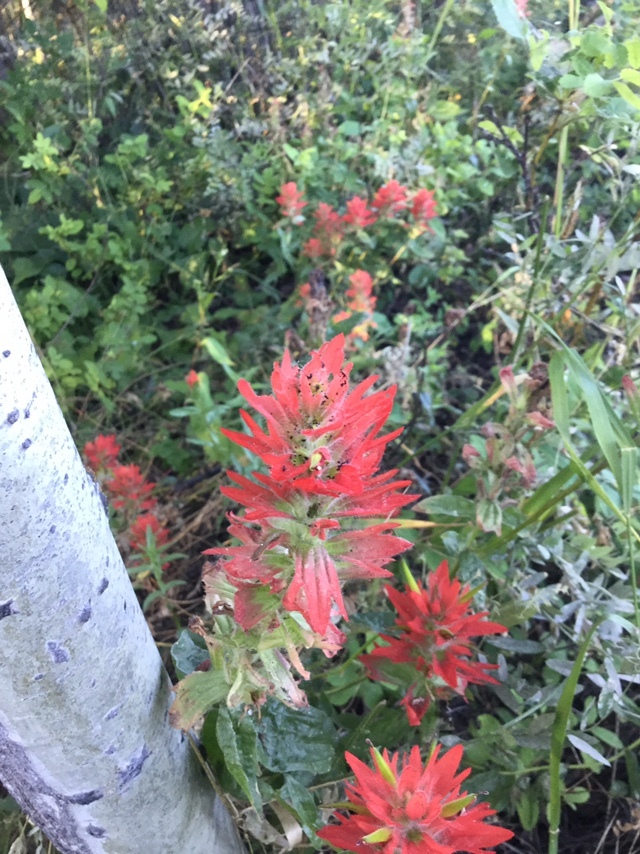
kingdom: Plantae
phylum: Tracheophyta
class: Magnoliopsida
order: Lamiales
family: Orobanchaceae
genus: Castilleja
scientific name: Castilleja miniata
